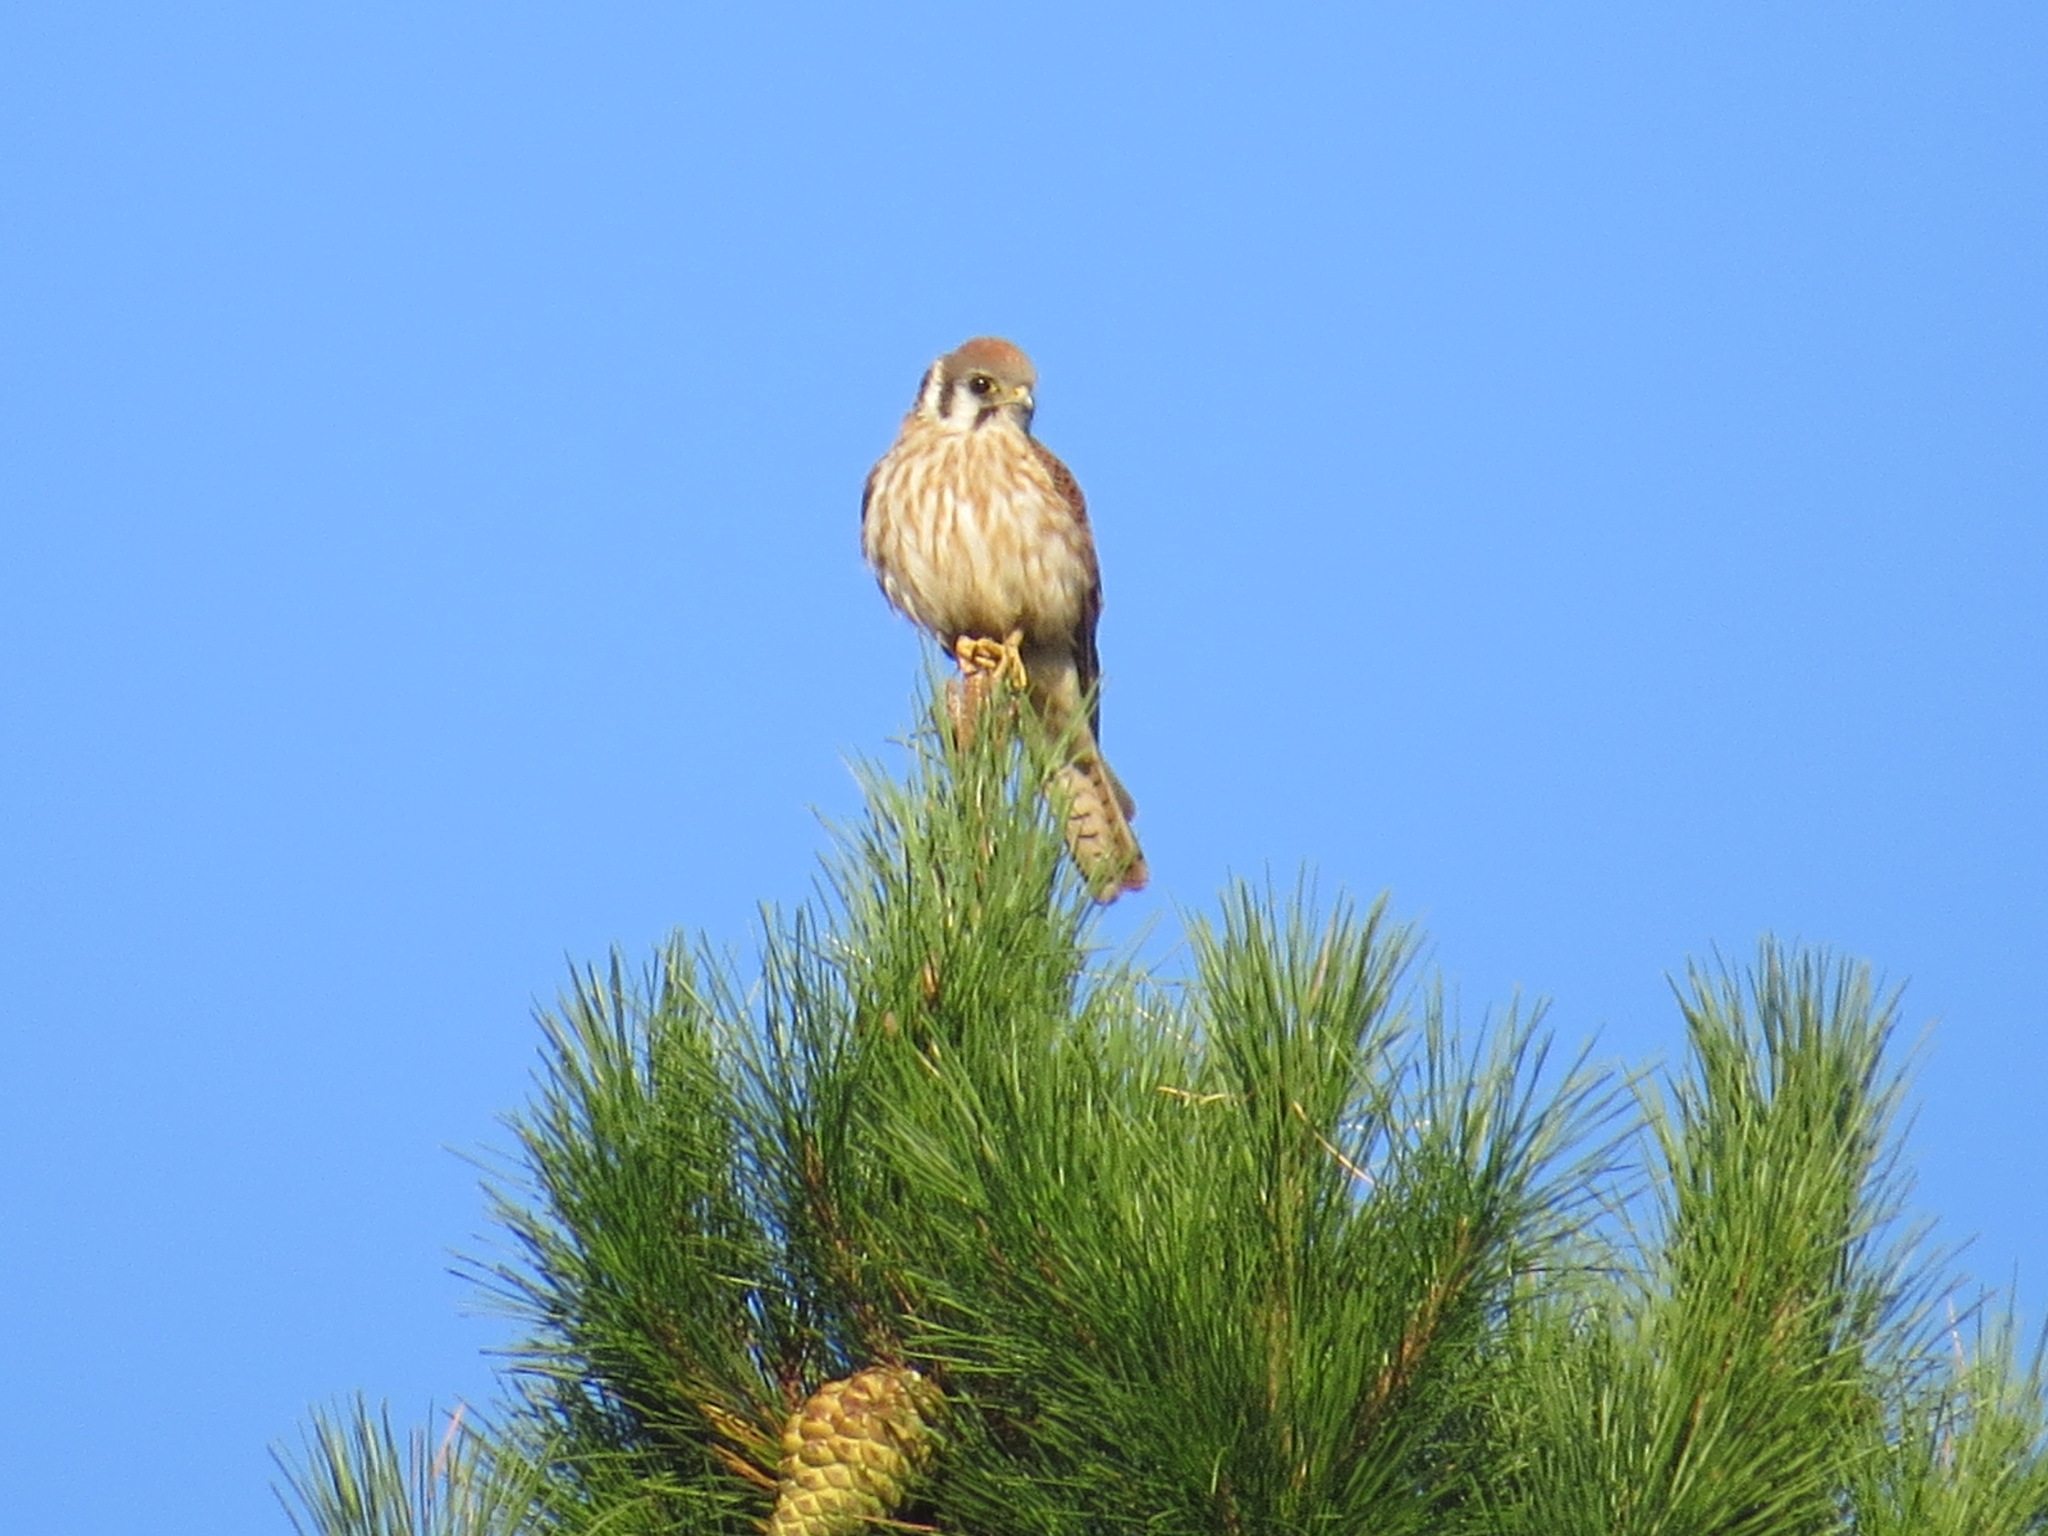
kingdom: Animalia
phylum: Chordata
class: Aves
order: Falconiformes
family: Falconidae
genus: Falco
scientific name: Falco sparverius
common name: American kestrel
